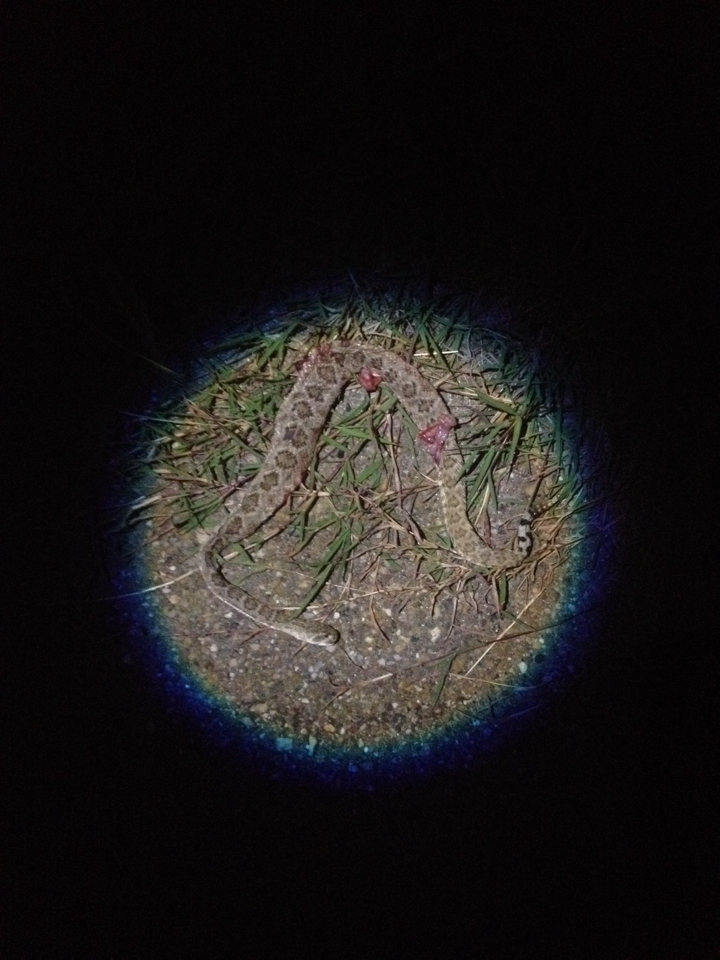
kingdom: Animalia
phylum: Chordata
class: Squamata
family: Viperidae
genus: Crotalus
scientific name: Crotalus atrox
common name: Western diamond-backed rattlesnake
